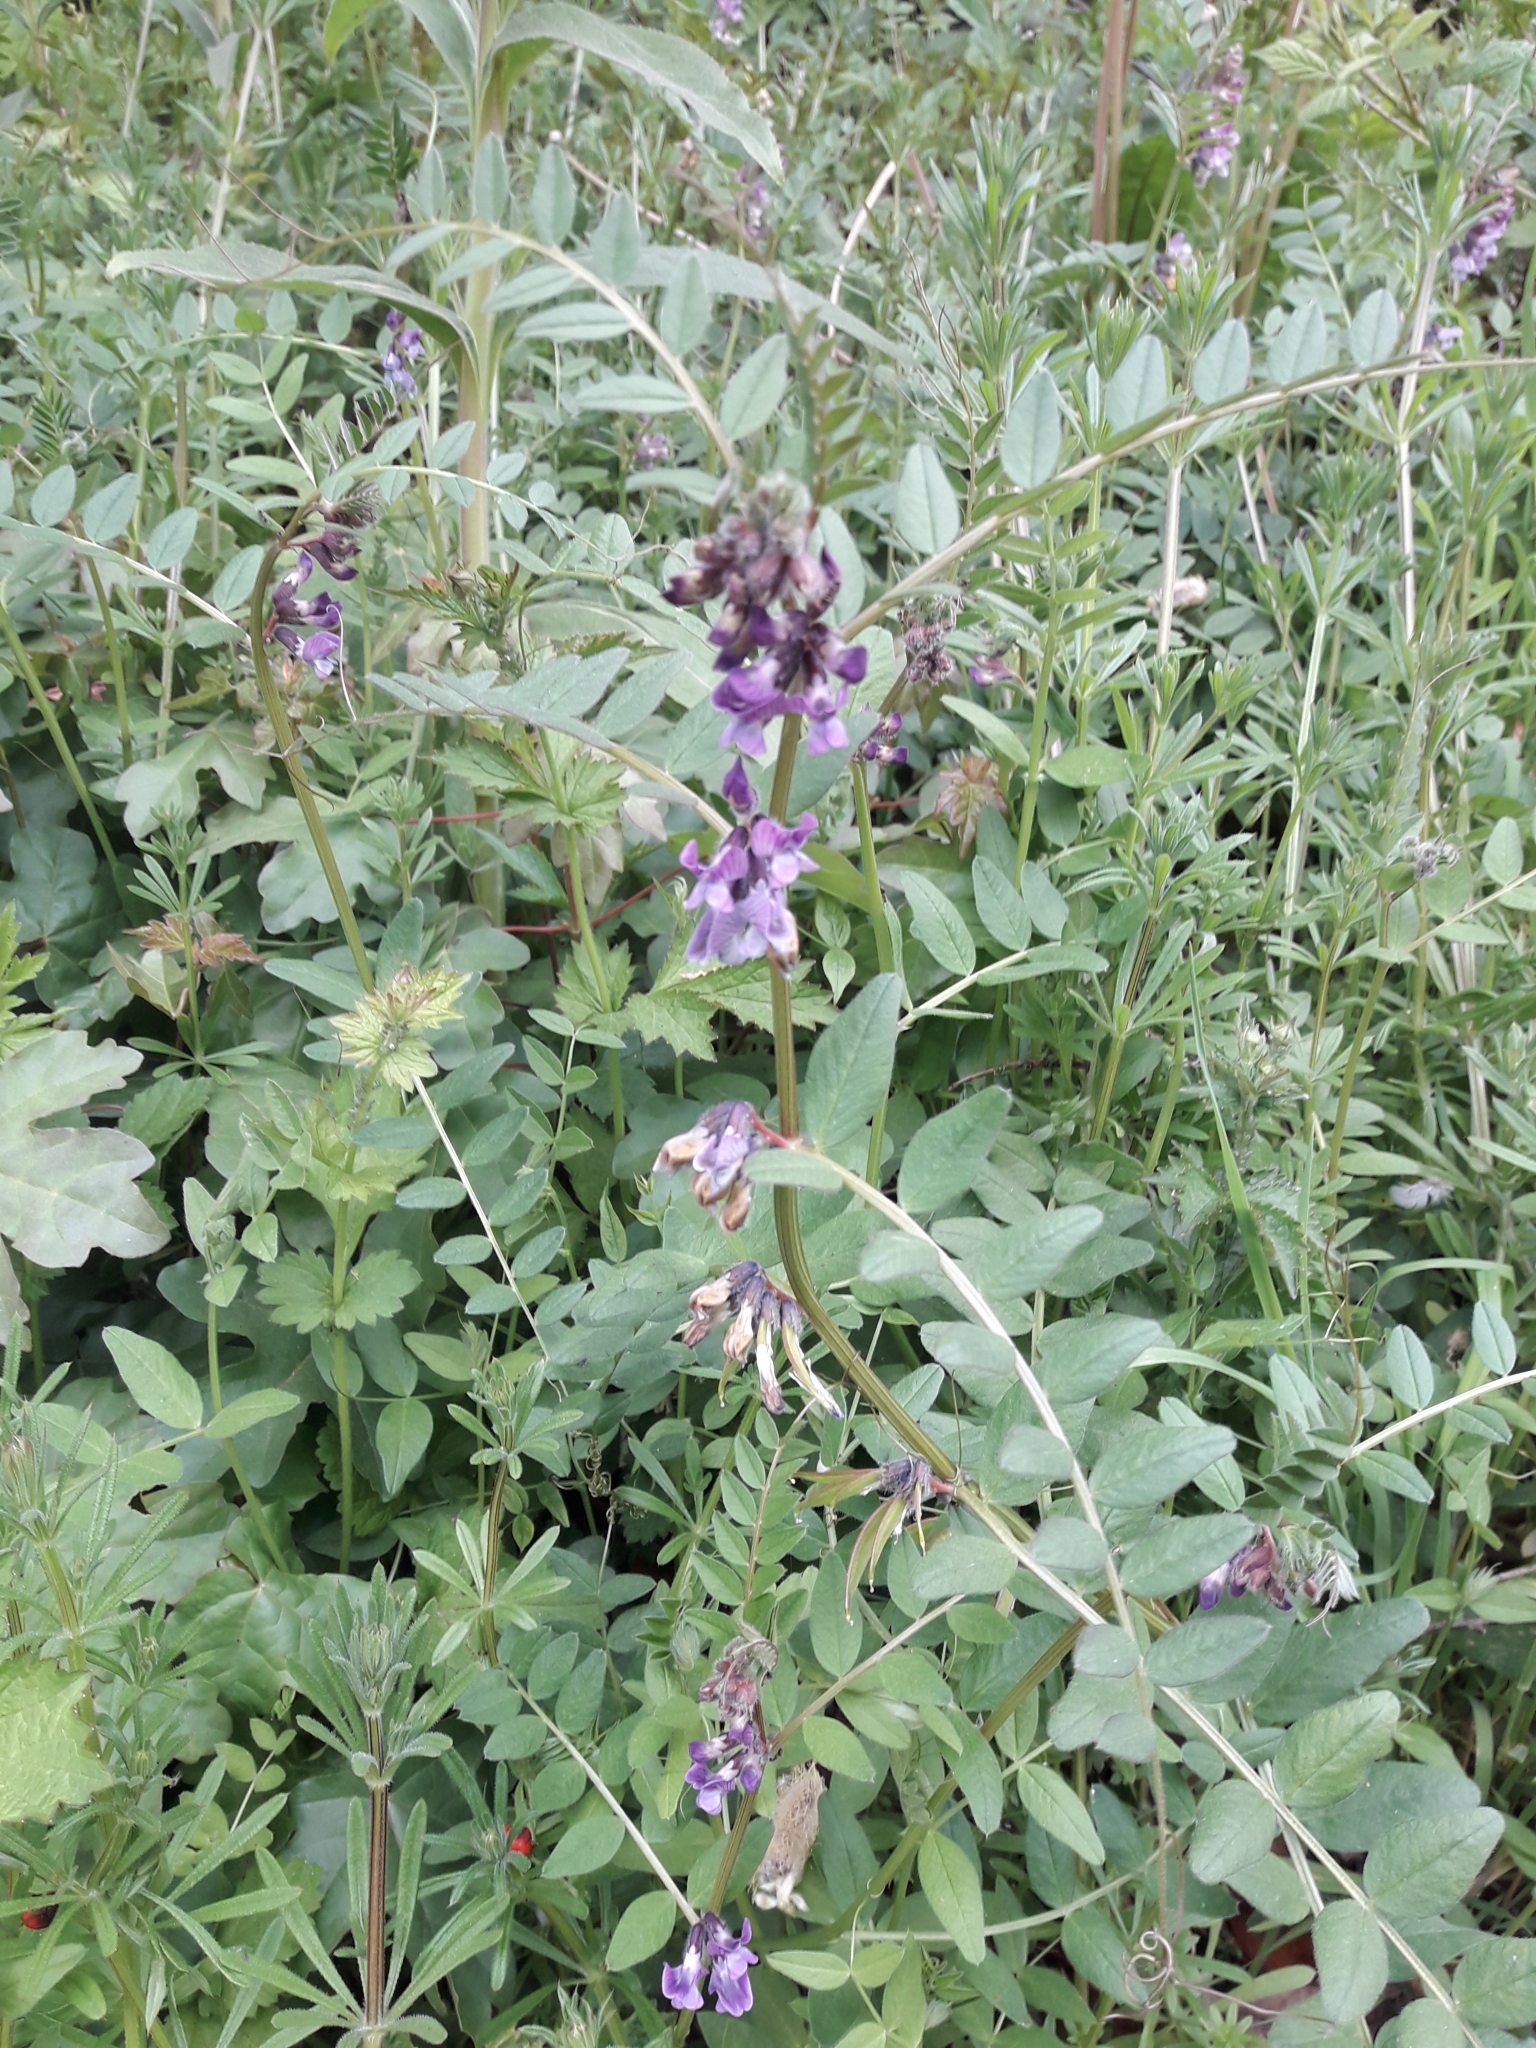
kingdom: Plantae
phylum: Tracheophyta
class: Magnoliopsida
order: Fabales
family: Fabaceae
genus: Vicia
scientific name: Vicia sepium
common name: Bush vetch
